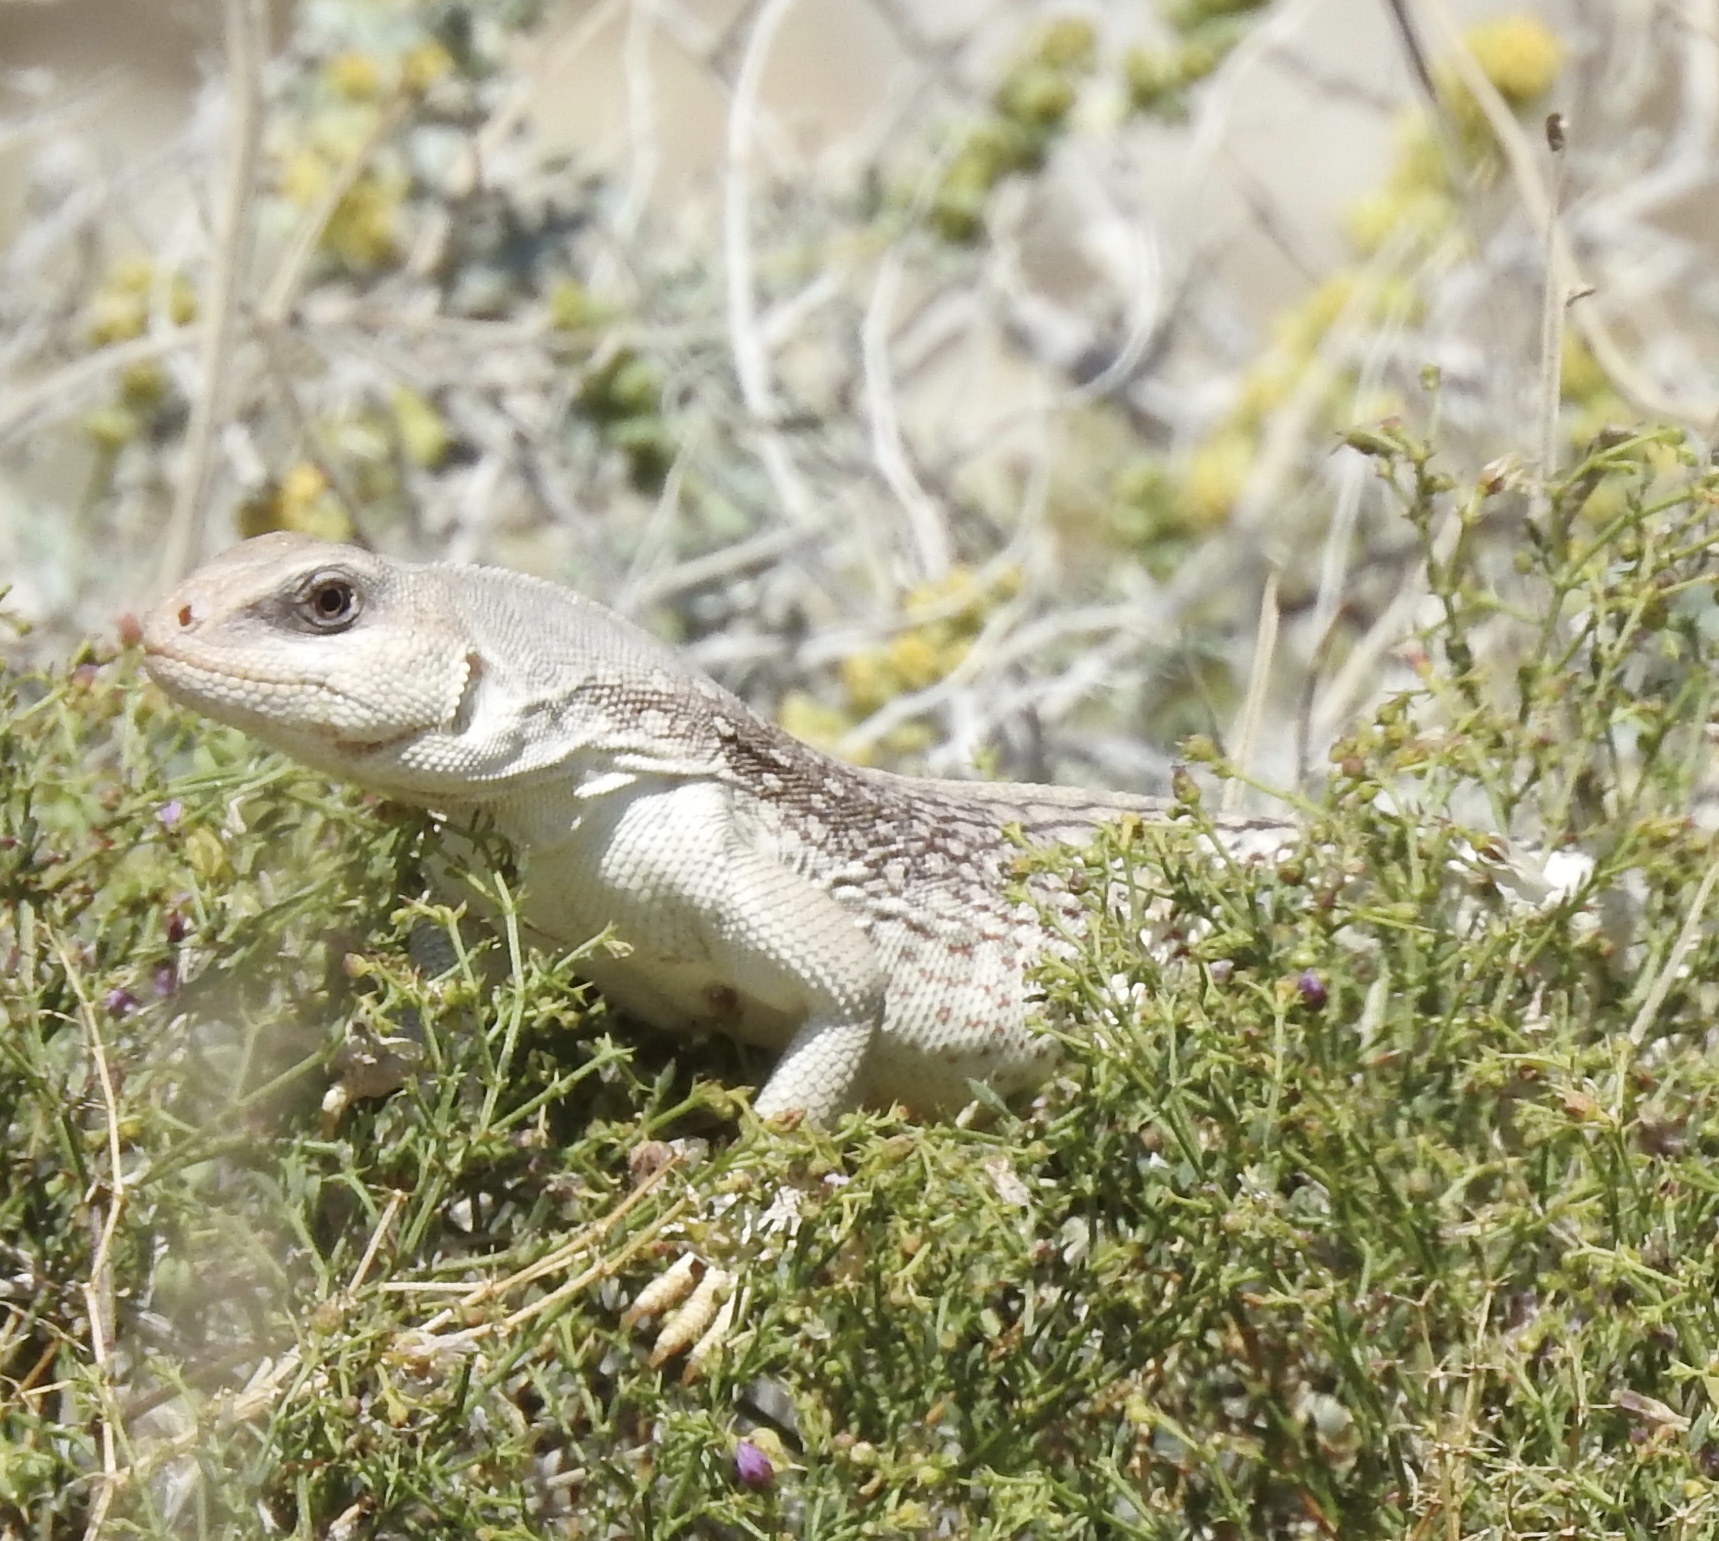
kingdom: Animalia
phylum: Chordata
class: Squamata
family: Iguanidae
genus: Dipsosaurus
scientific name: Dipsosaurus dorsalis
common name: Desert iguana
